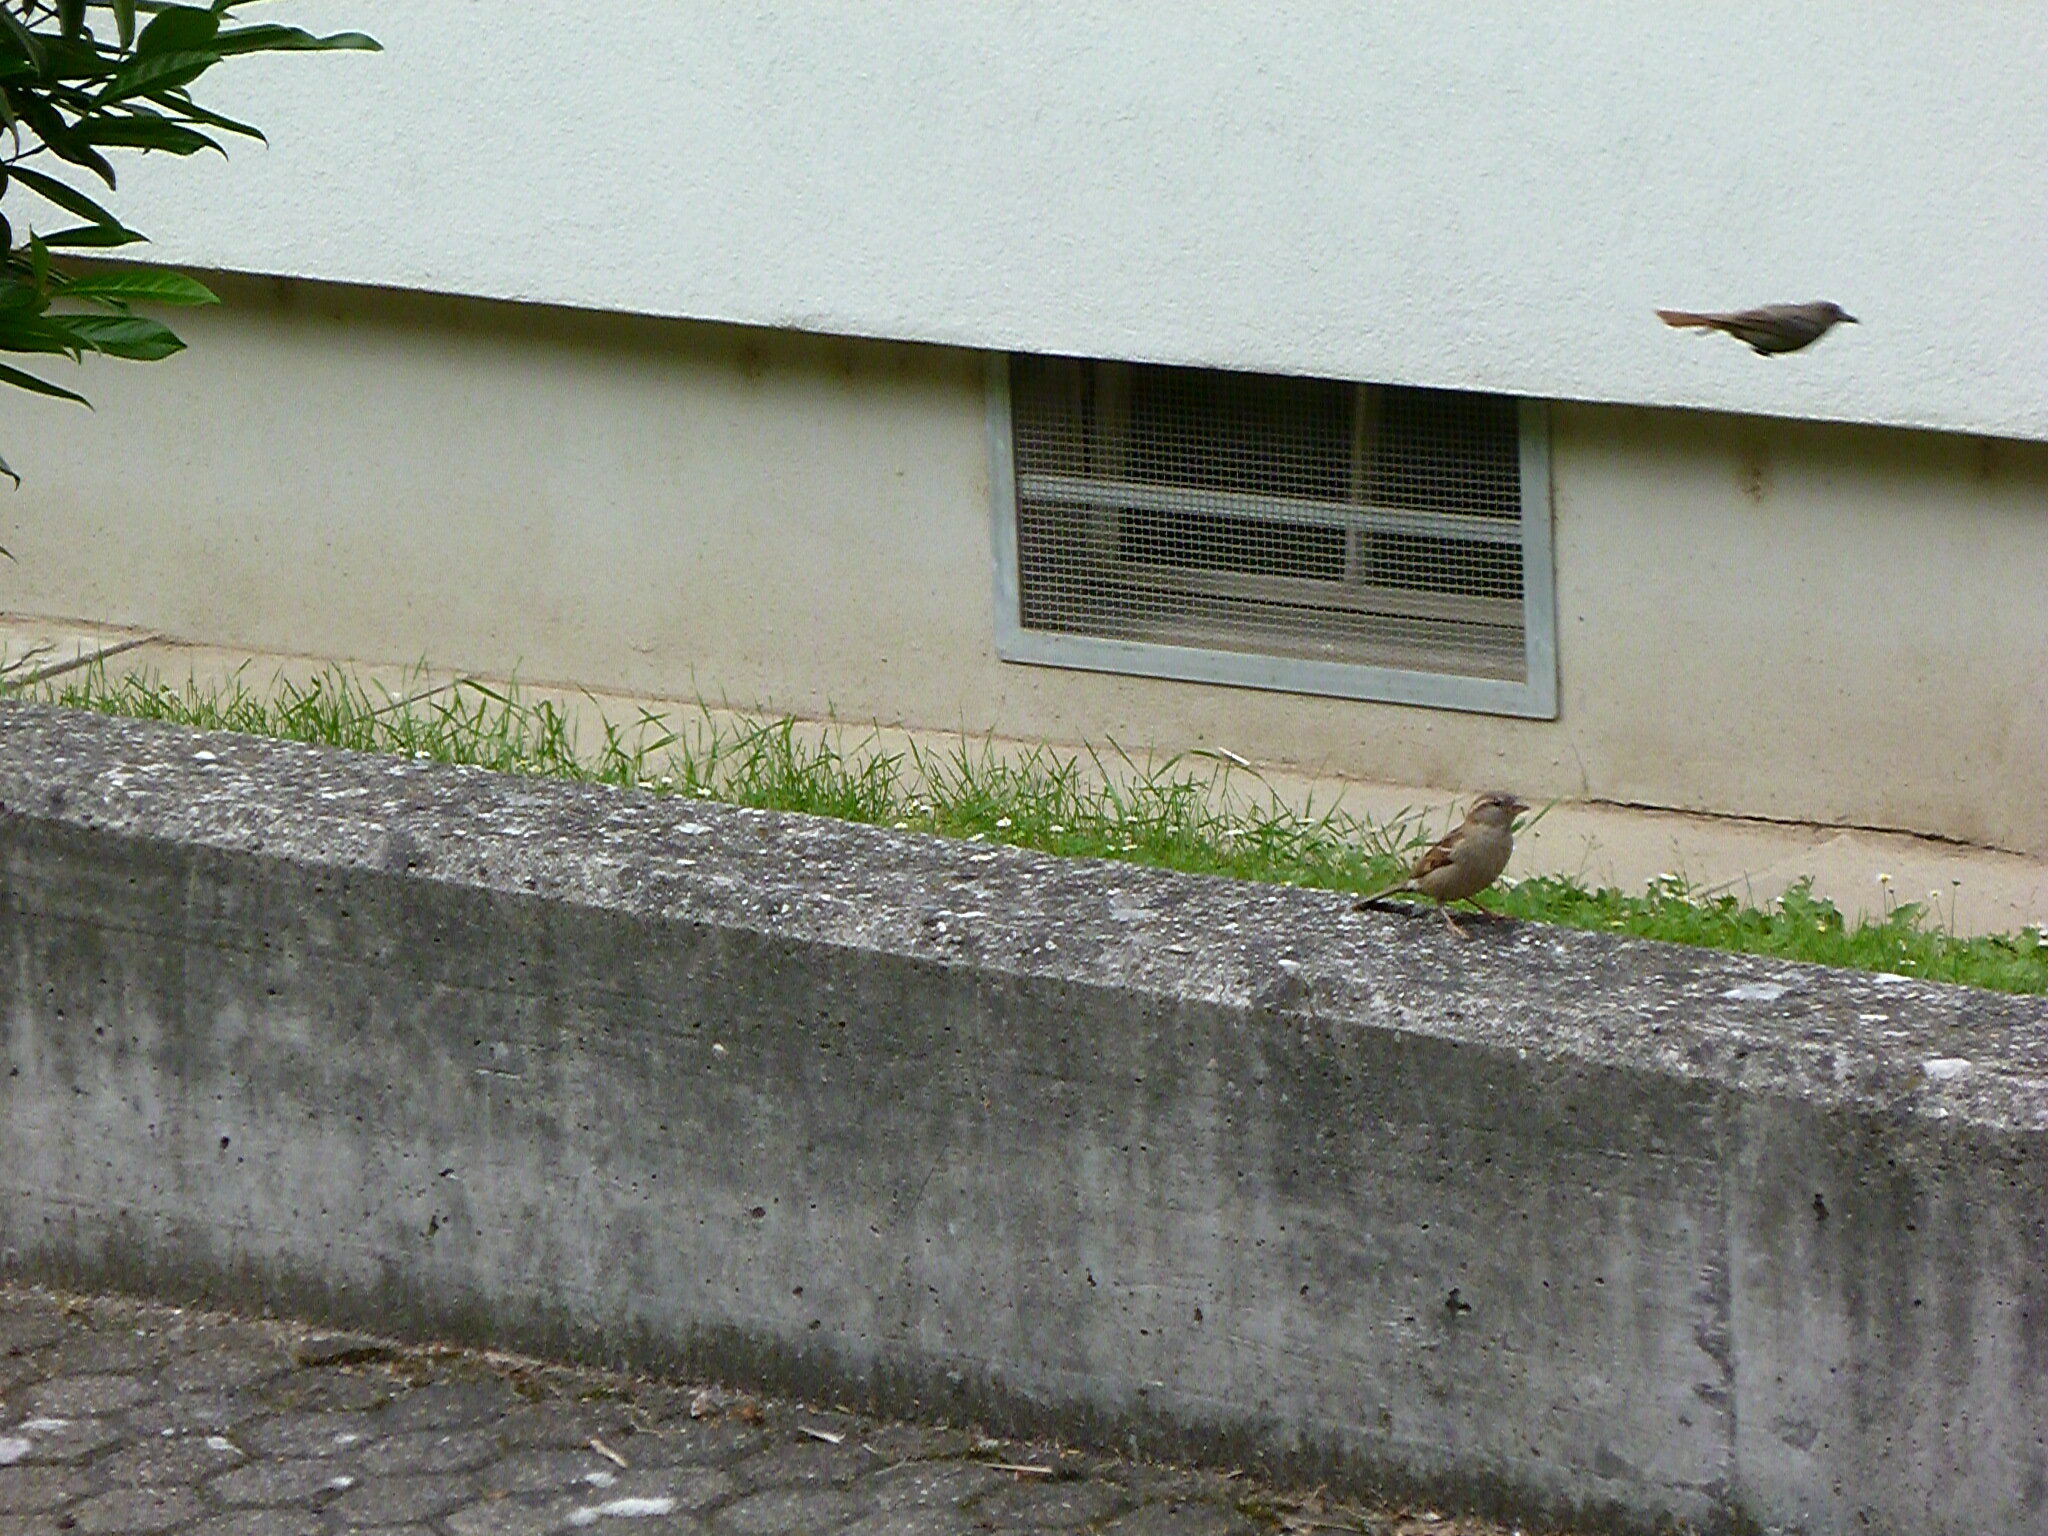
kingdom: Animalia
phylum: Chordata
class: Aves
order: Passeriformes
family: Muscicapidae
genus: Phoenicurus
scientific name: Phoenicurus ochruros
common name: Black redstart
